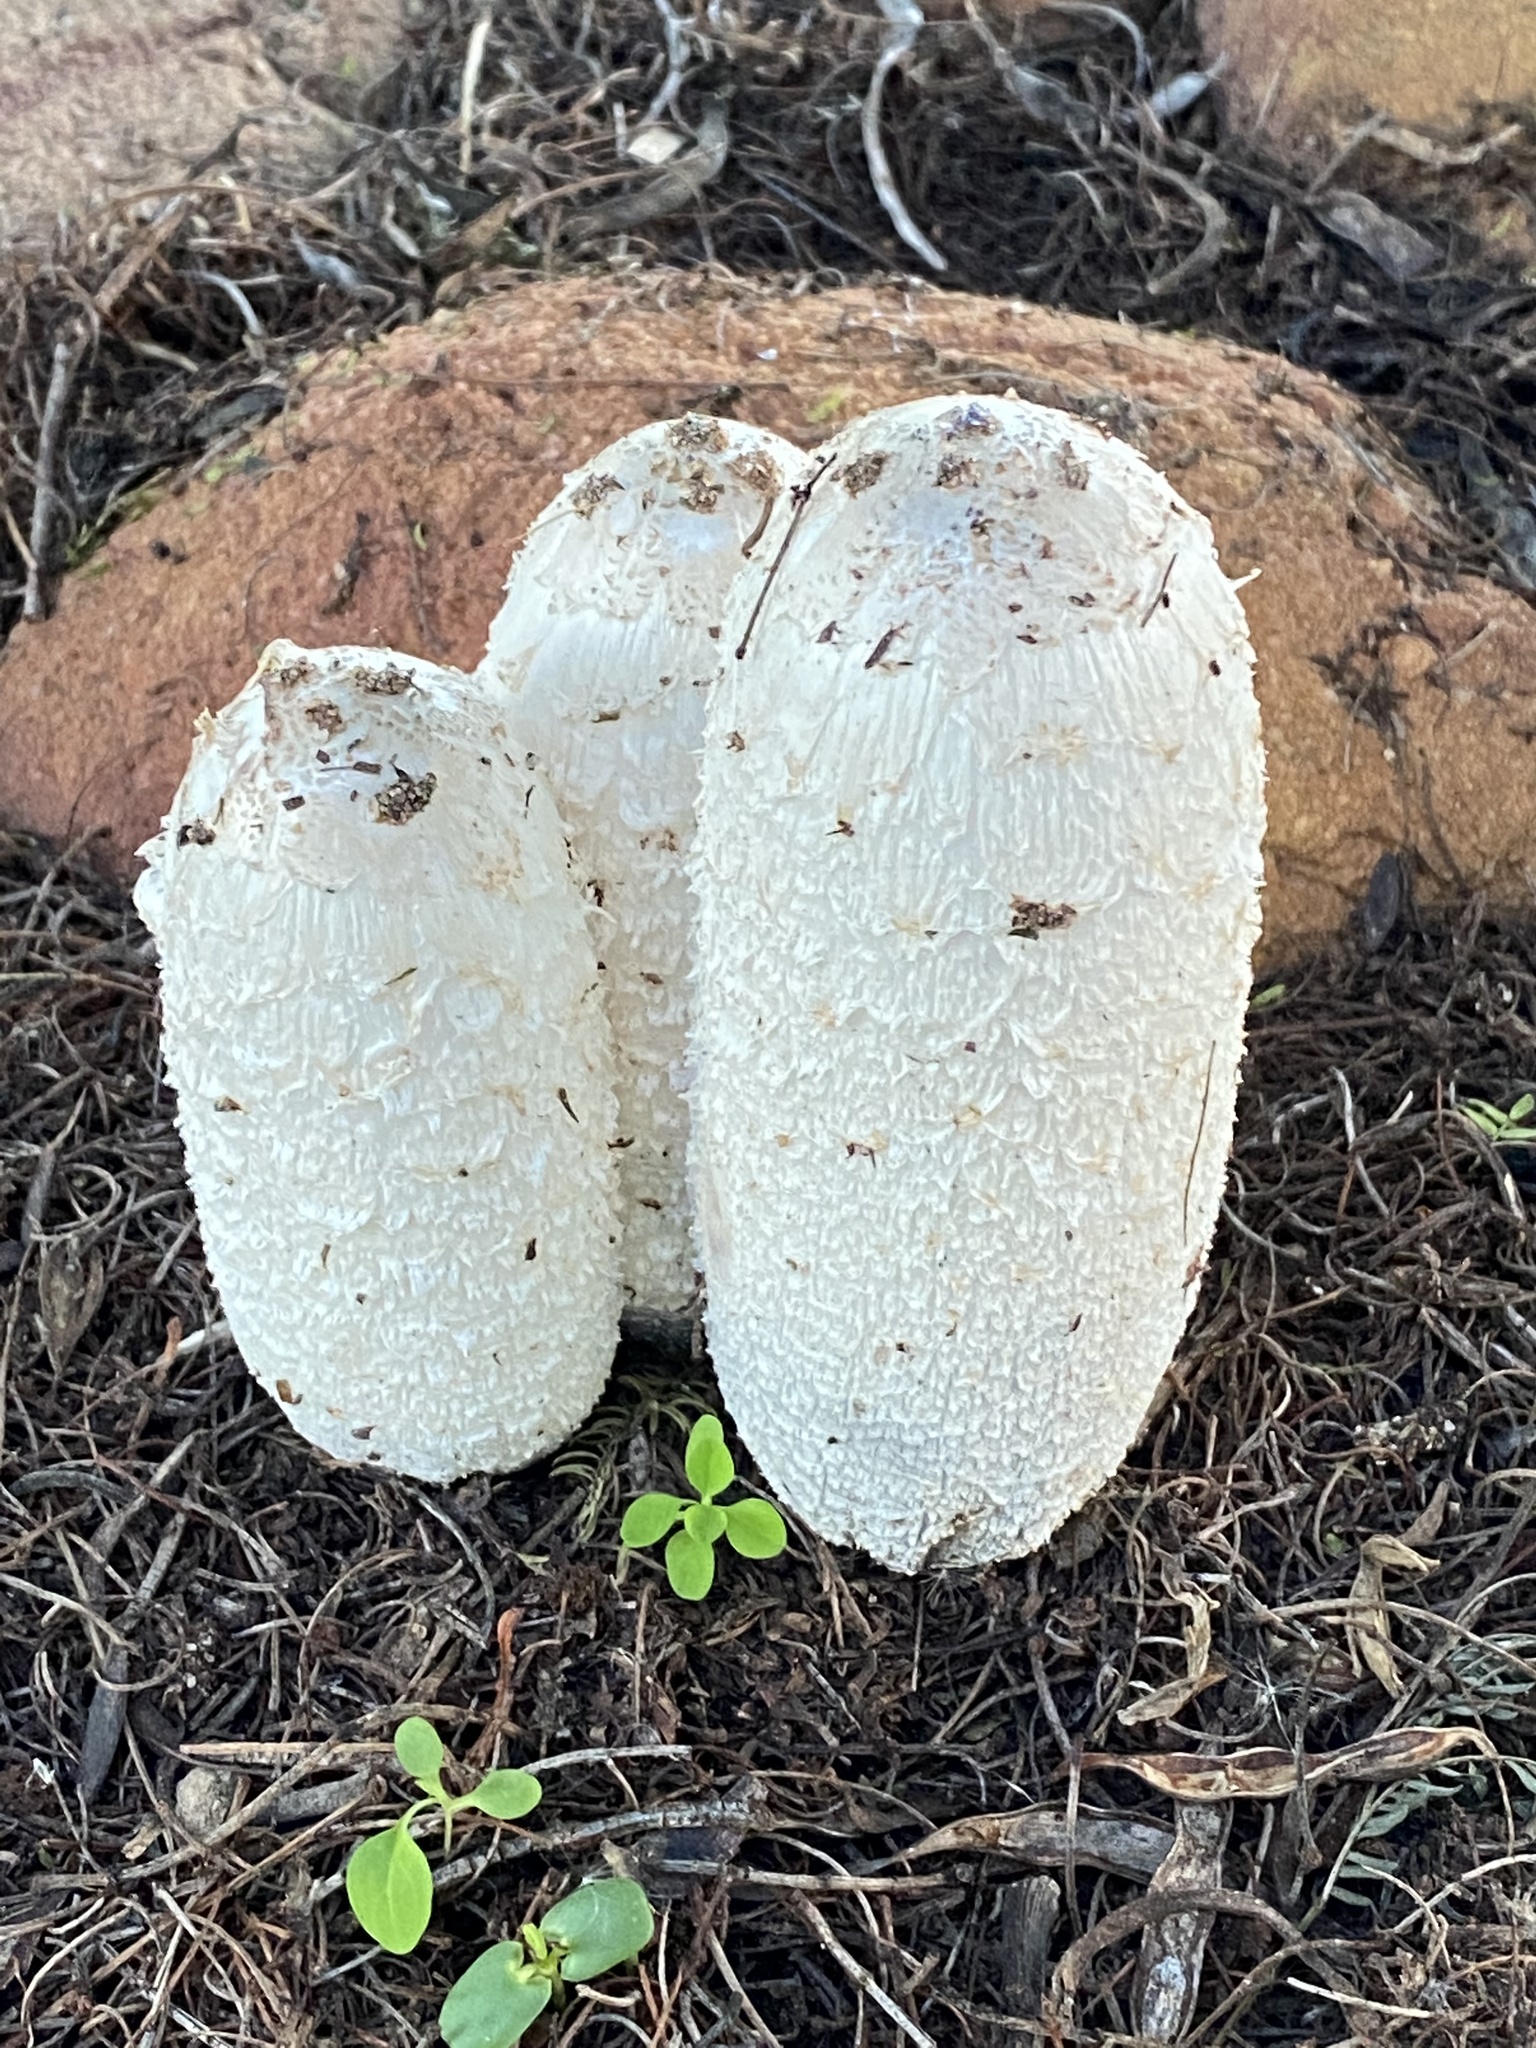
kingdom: Fungi
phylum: Basidiomycota
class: Agaricomycetes
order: Agaricales
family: Agaricaceae
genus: Coprinus
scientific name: Coprinus comatus
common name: Lawyer's wig
